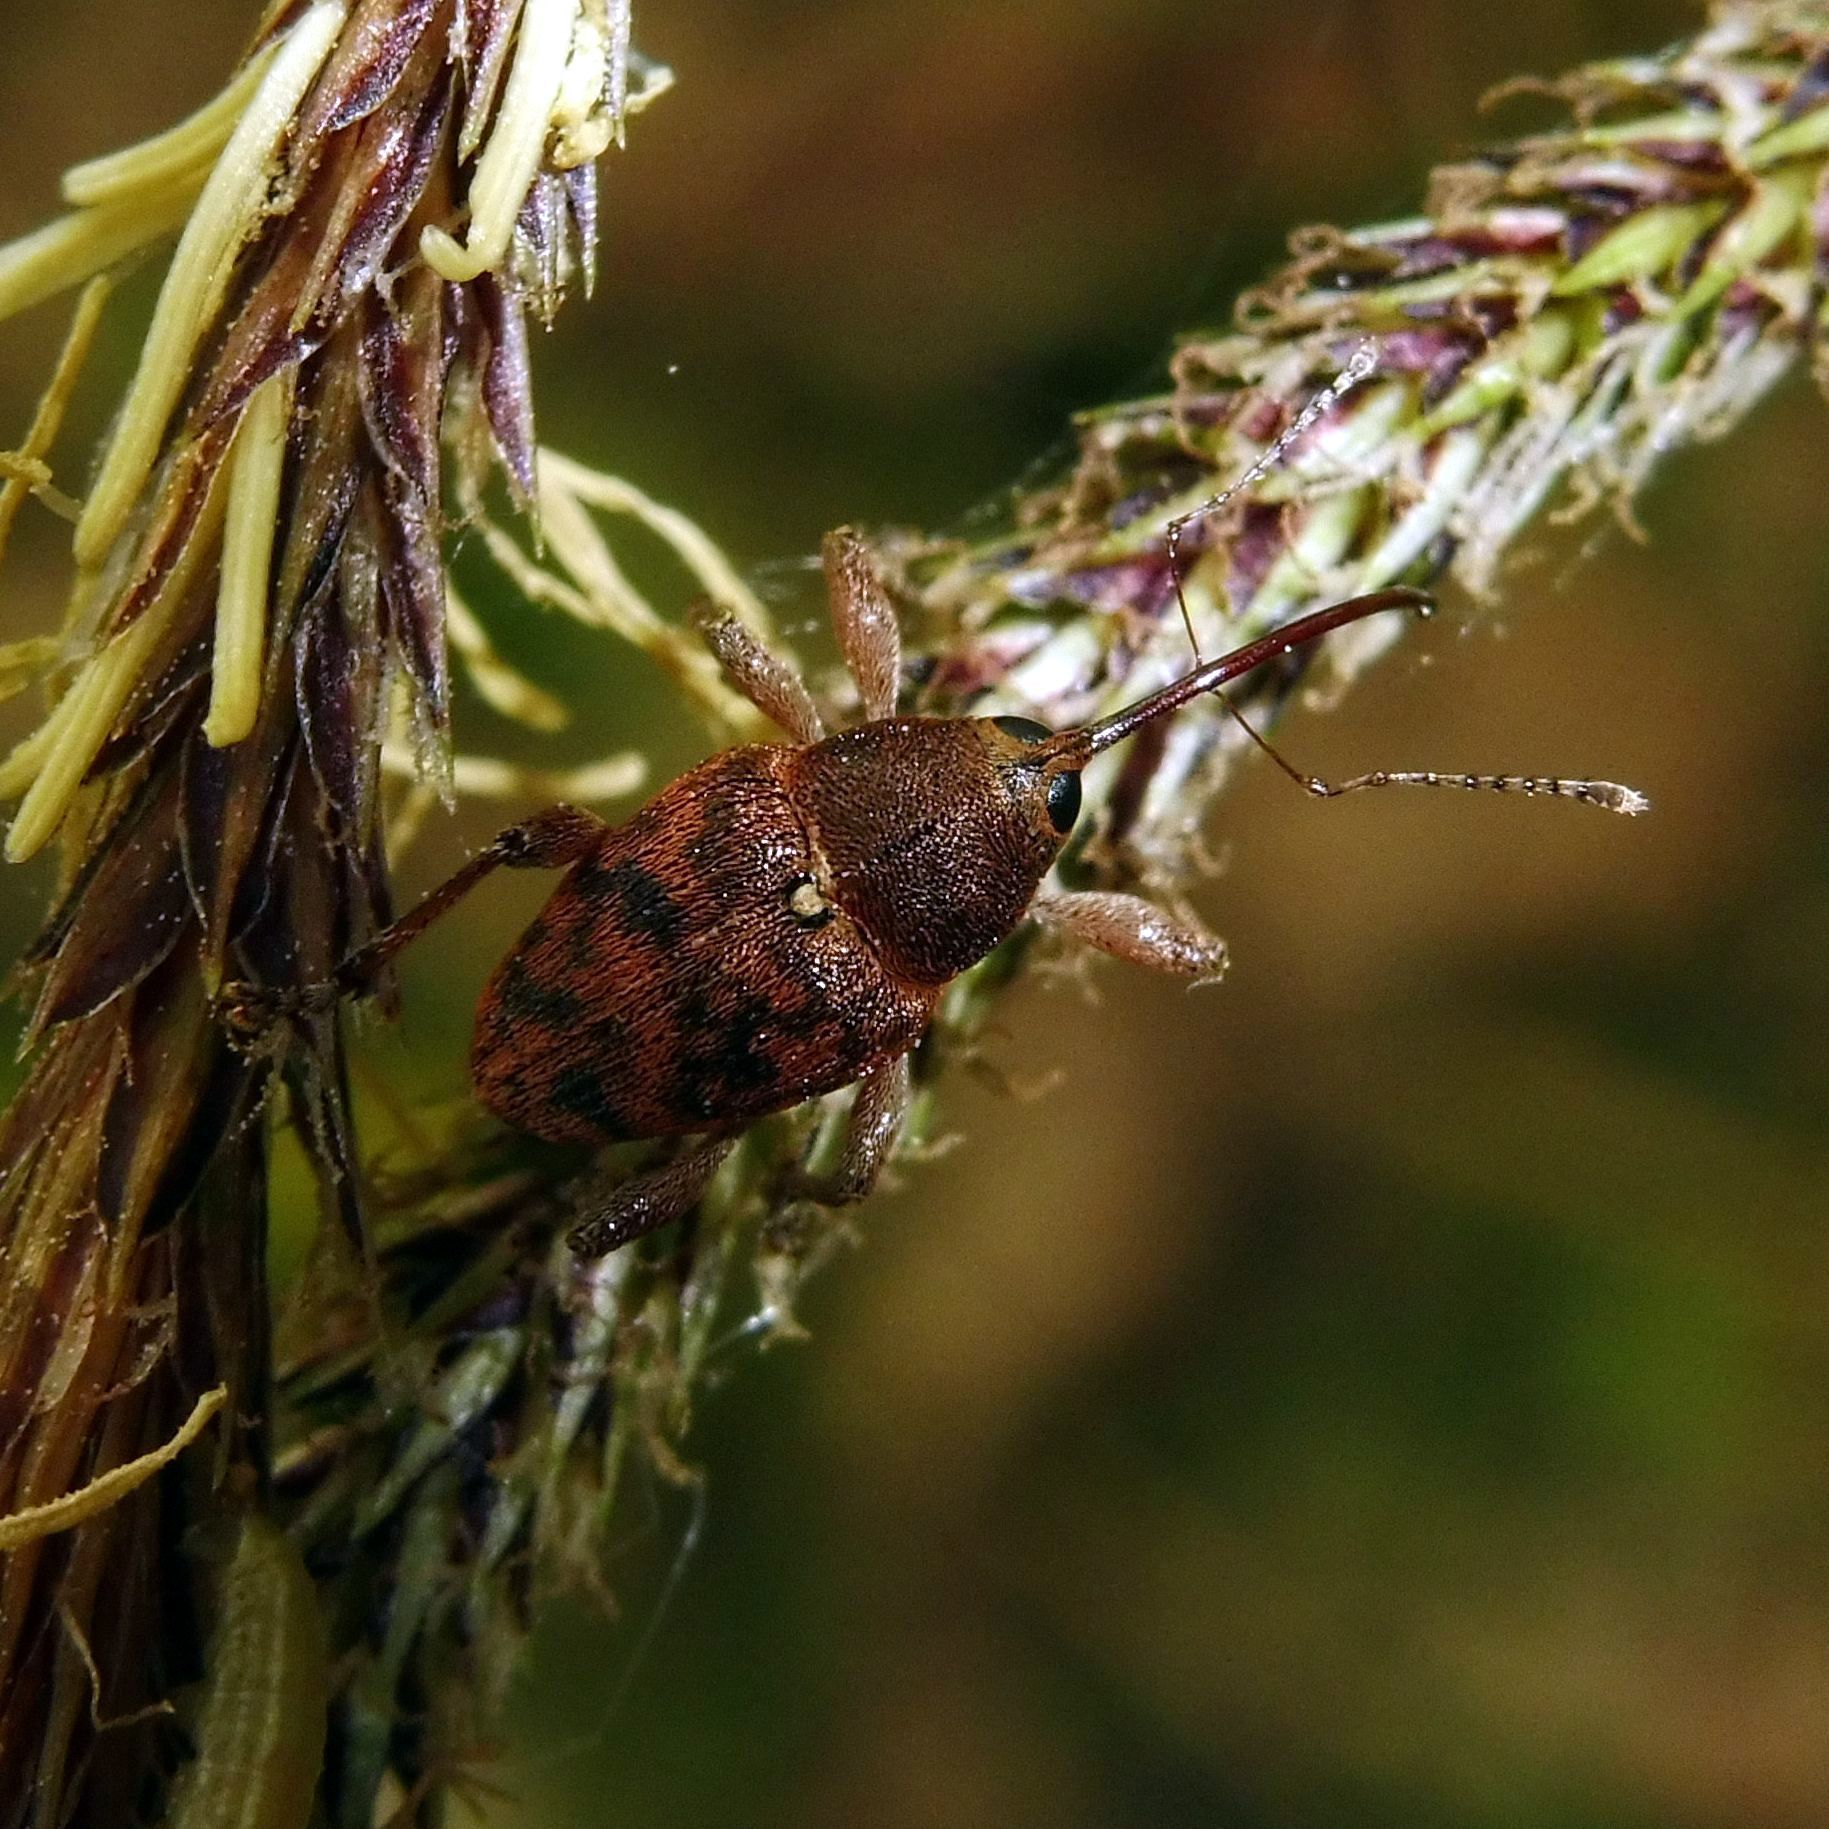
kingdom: Animalia
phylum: Arthropoda
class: Insecta
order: Coleoptera
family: Curculionidae
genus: Curculio
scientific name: Curculio glandium
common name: Acorn weevil
